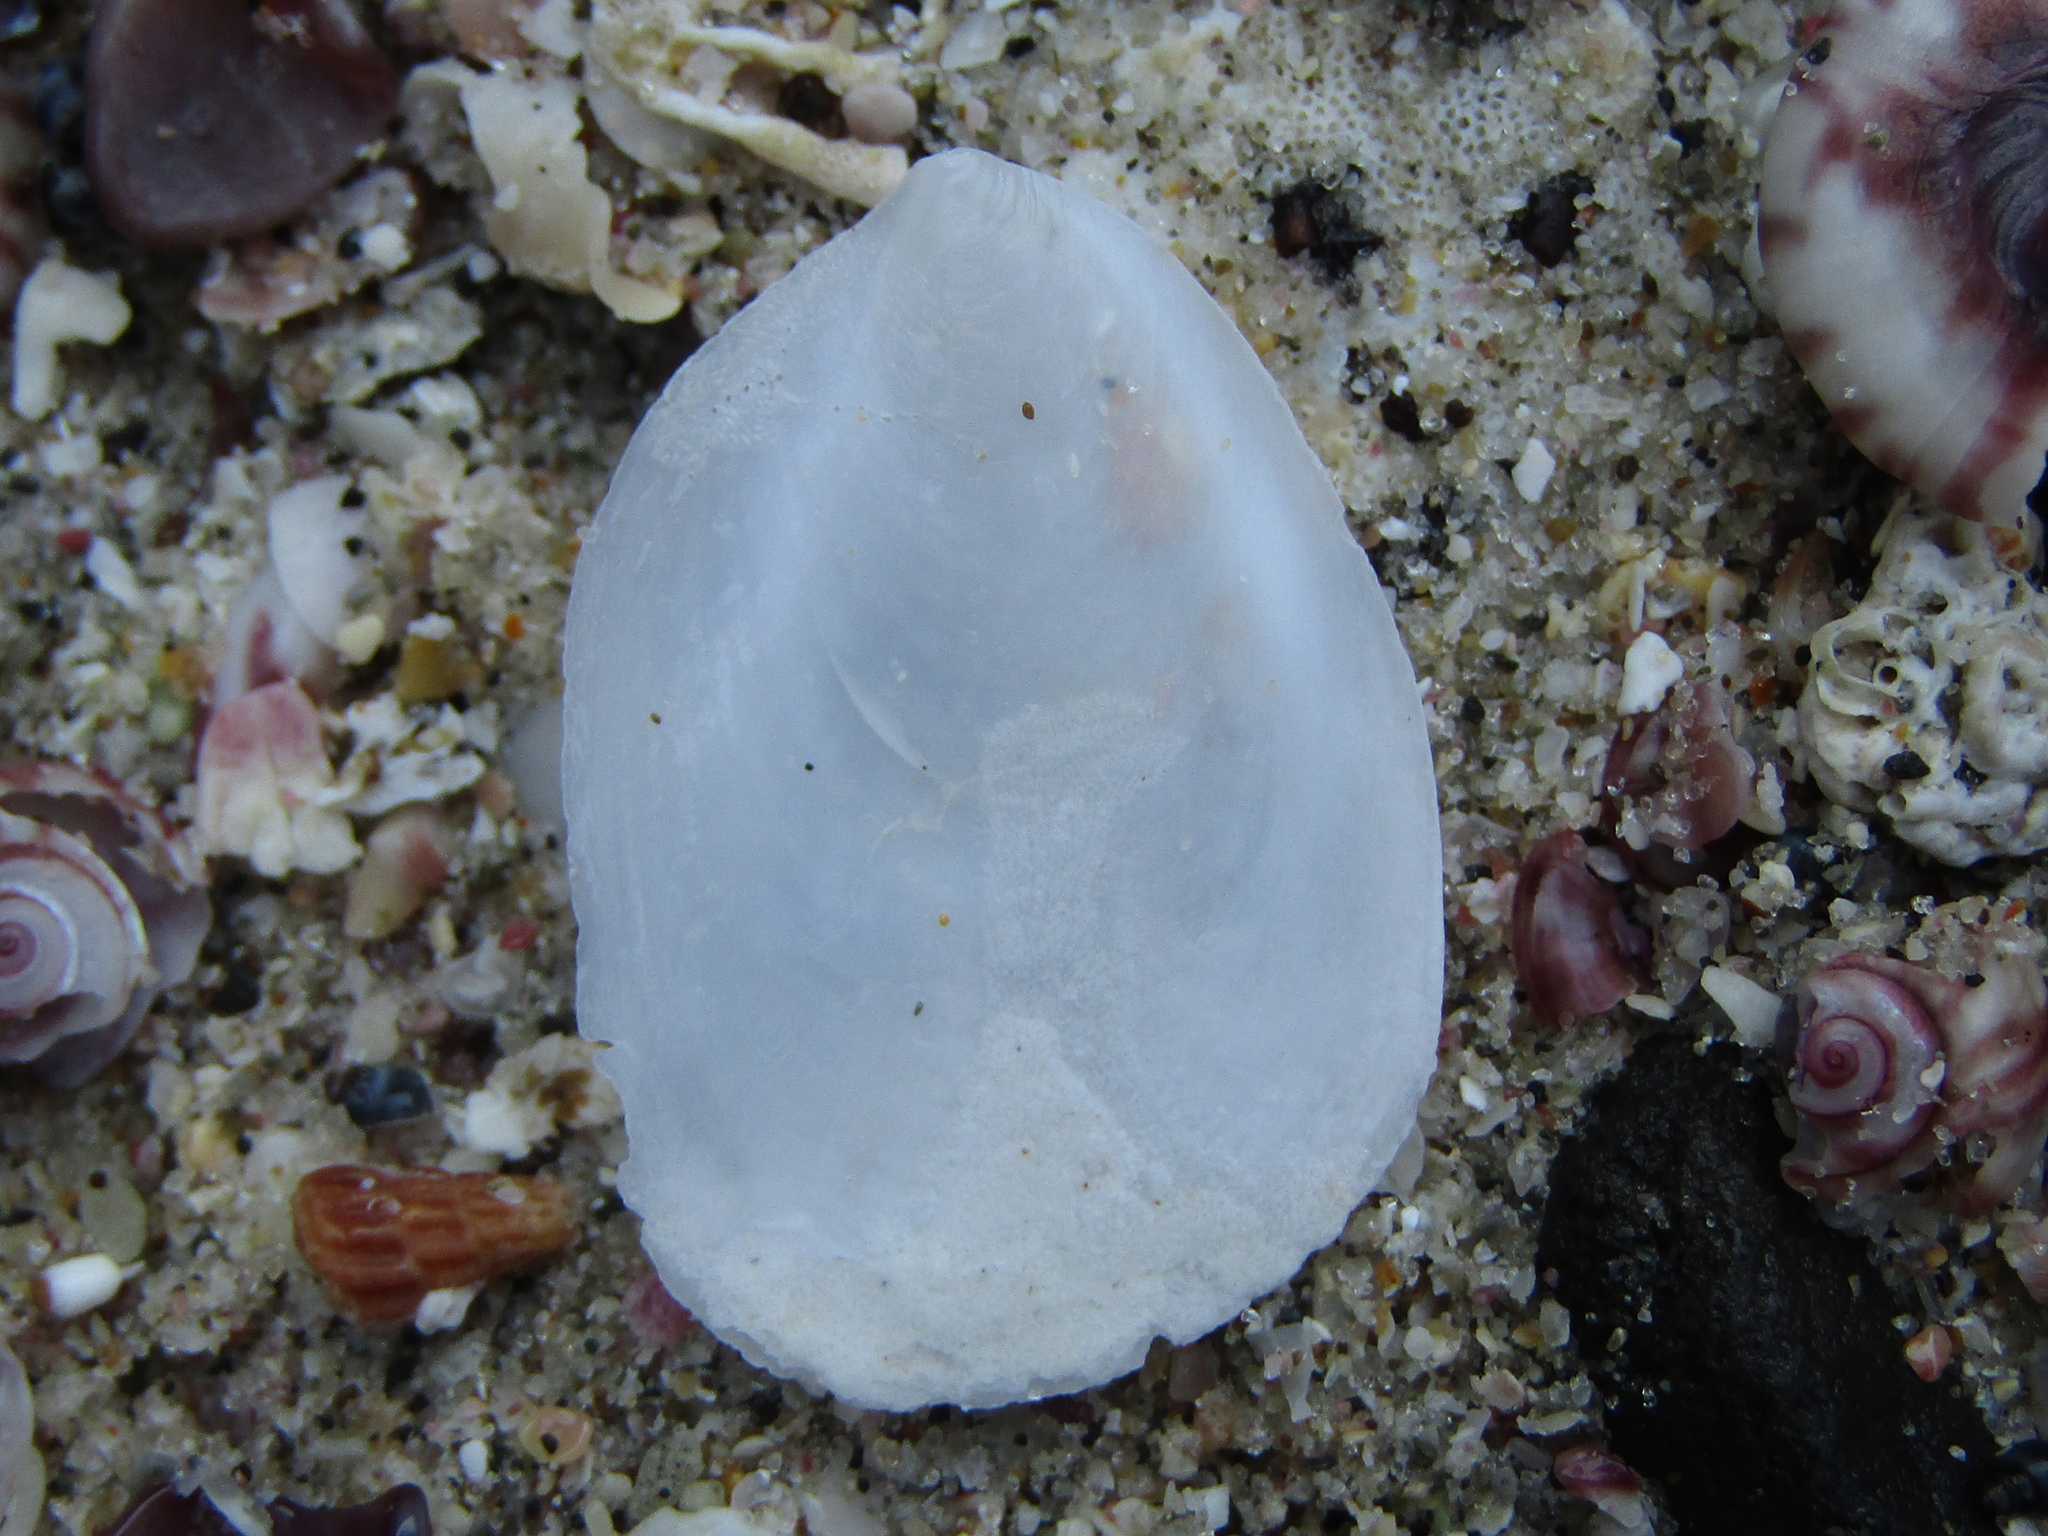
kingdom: Animalia
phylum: Mollusca
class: Gastropoda
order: Littorinimorpha
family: Calyptraeidae
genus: Maoricrypta
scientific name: Maoricrypta sodalis
